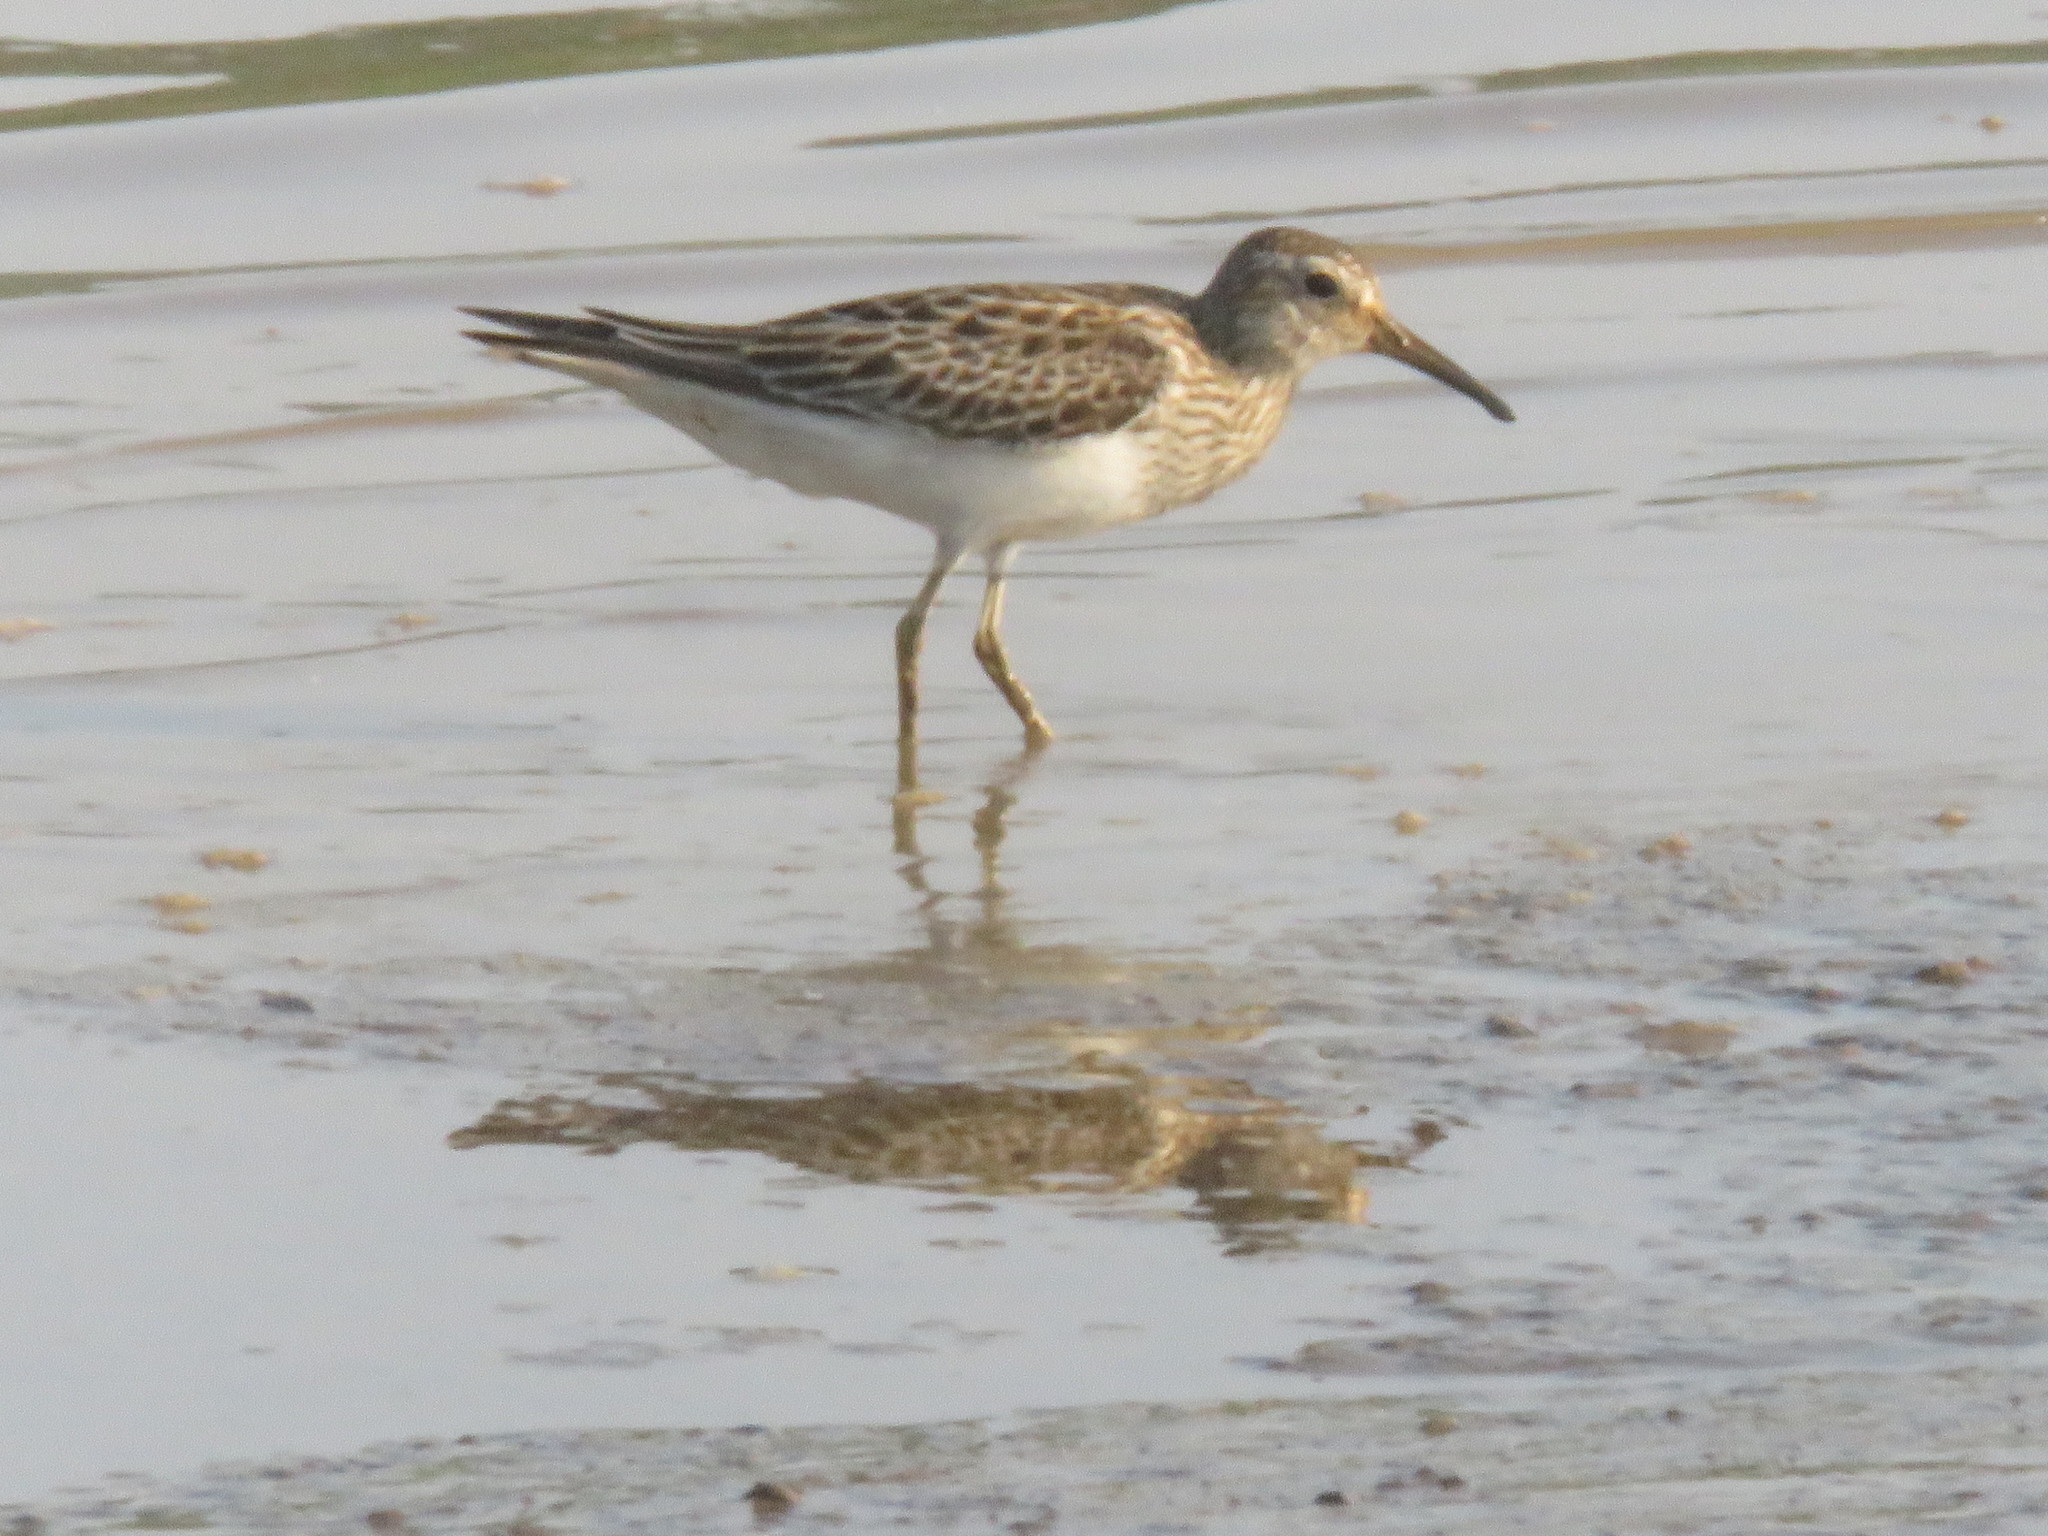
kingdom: Animalia
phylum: Chordata
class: Aves
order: Charadriiformes
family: Scolopacidae
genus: Calidris
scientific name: Calidris melanotos
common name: Pectoral sandpiper
